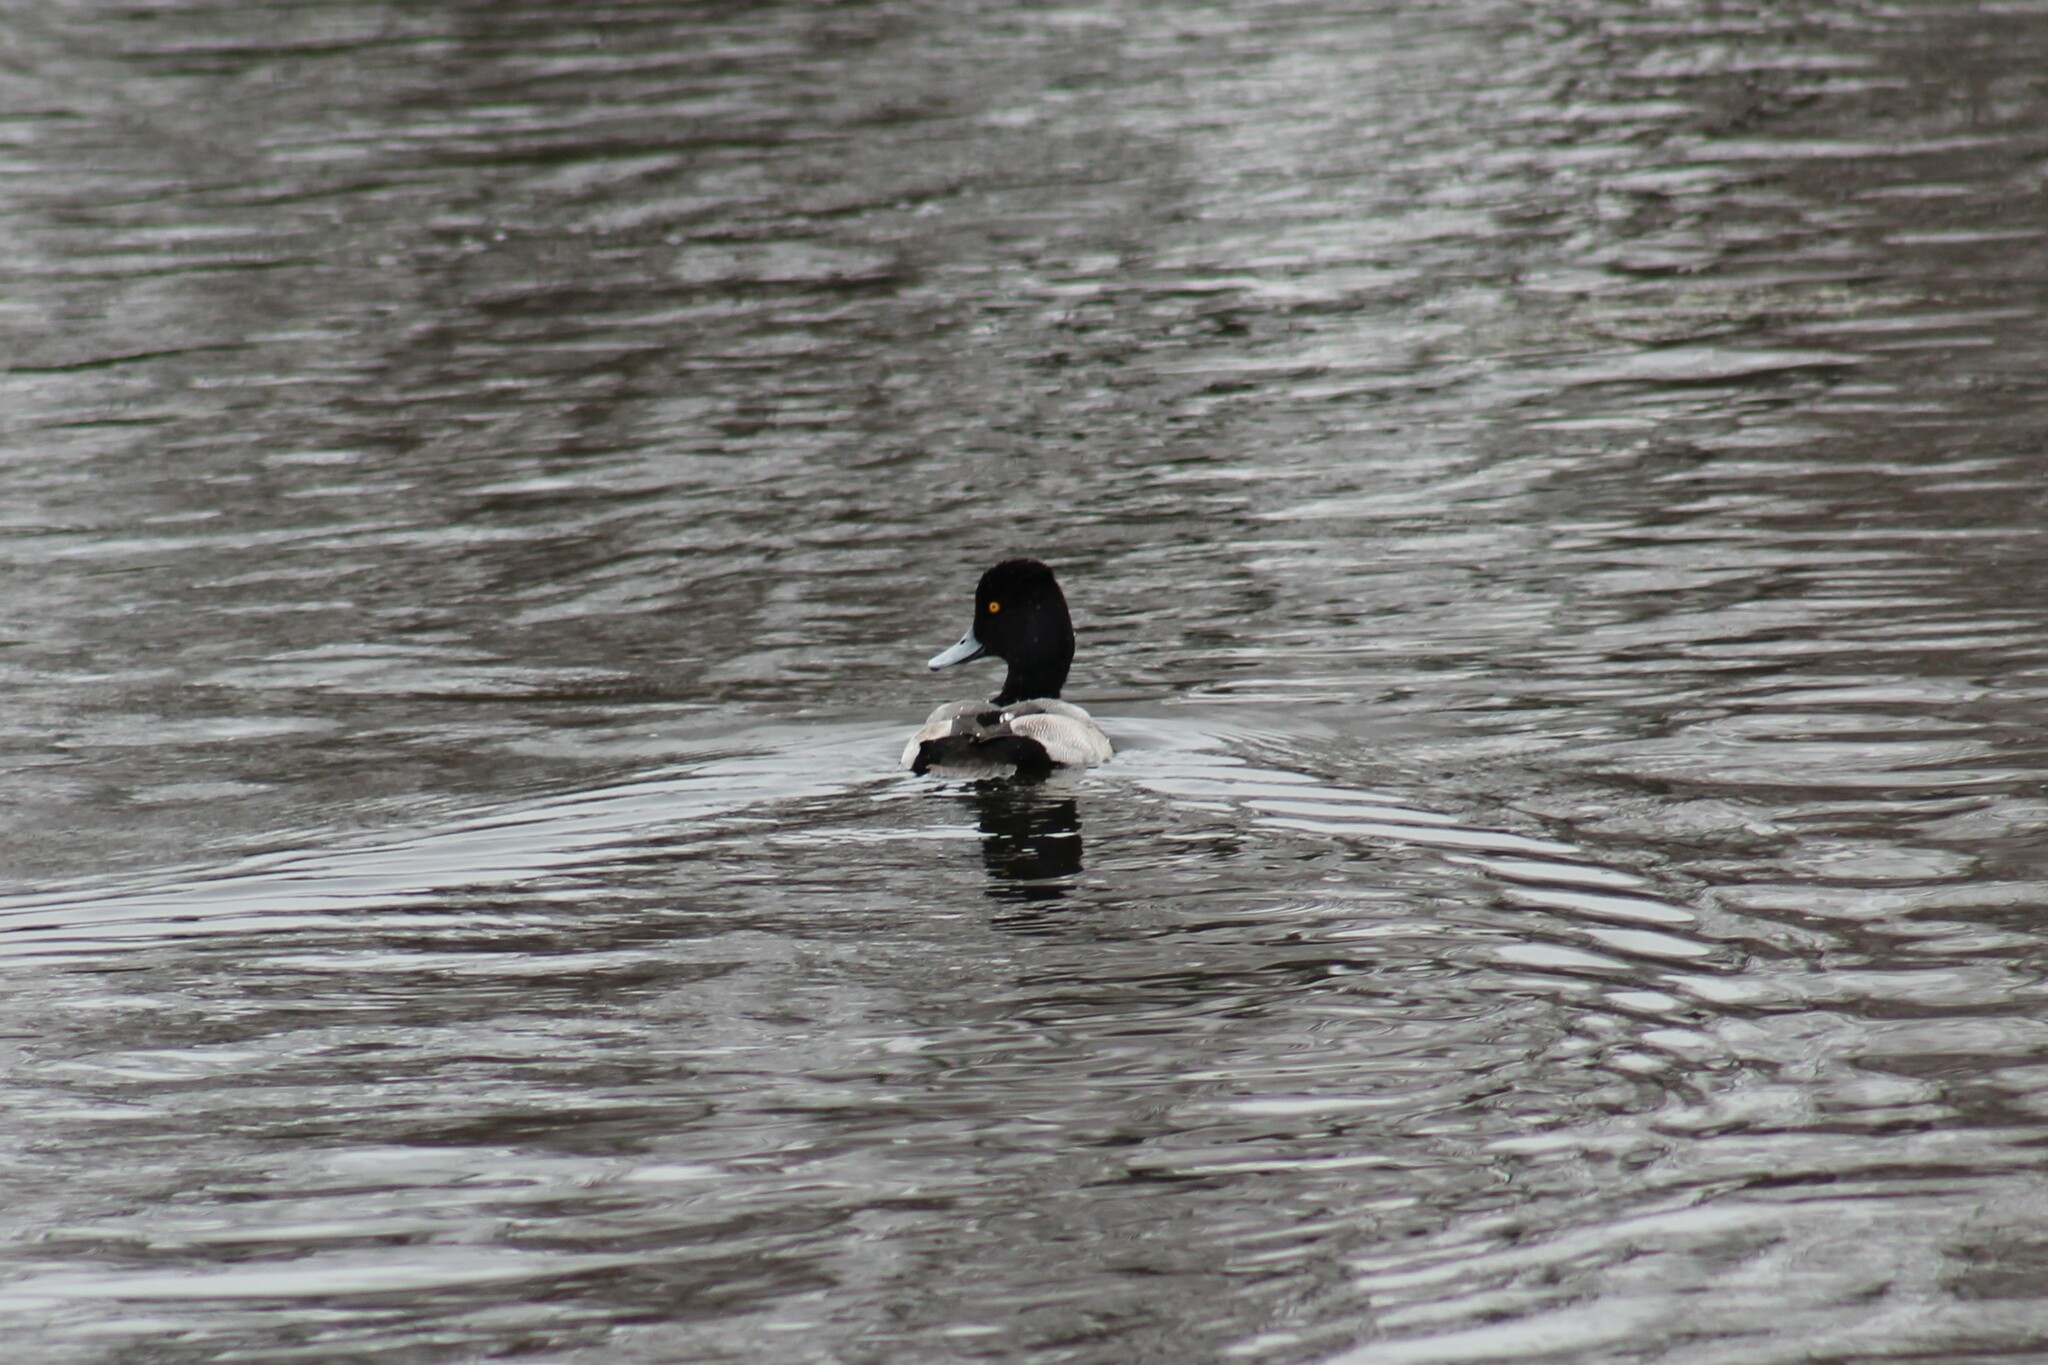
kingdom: Animalia
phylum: Chordata
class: Aves
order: Anseriformes
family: Anatidae
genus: Aythya
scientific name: Aythya affinis
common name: Lesser scaup
